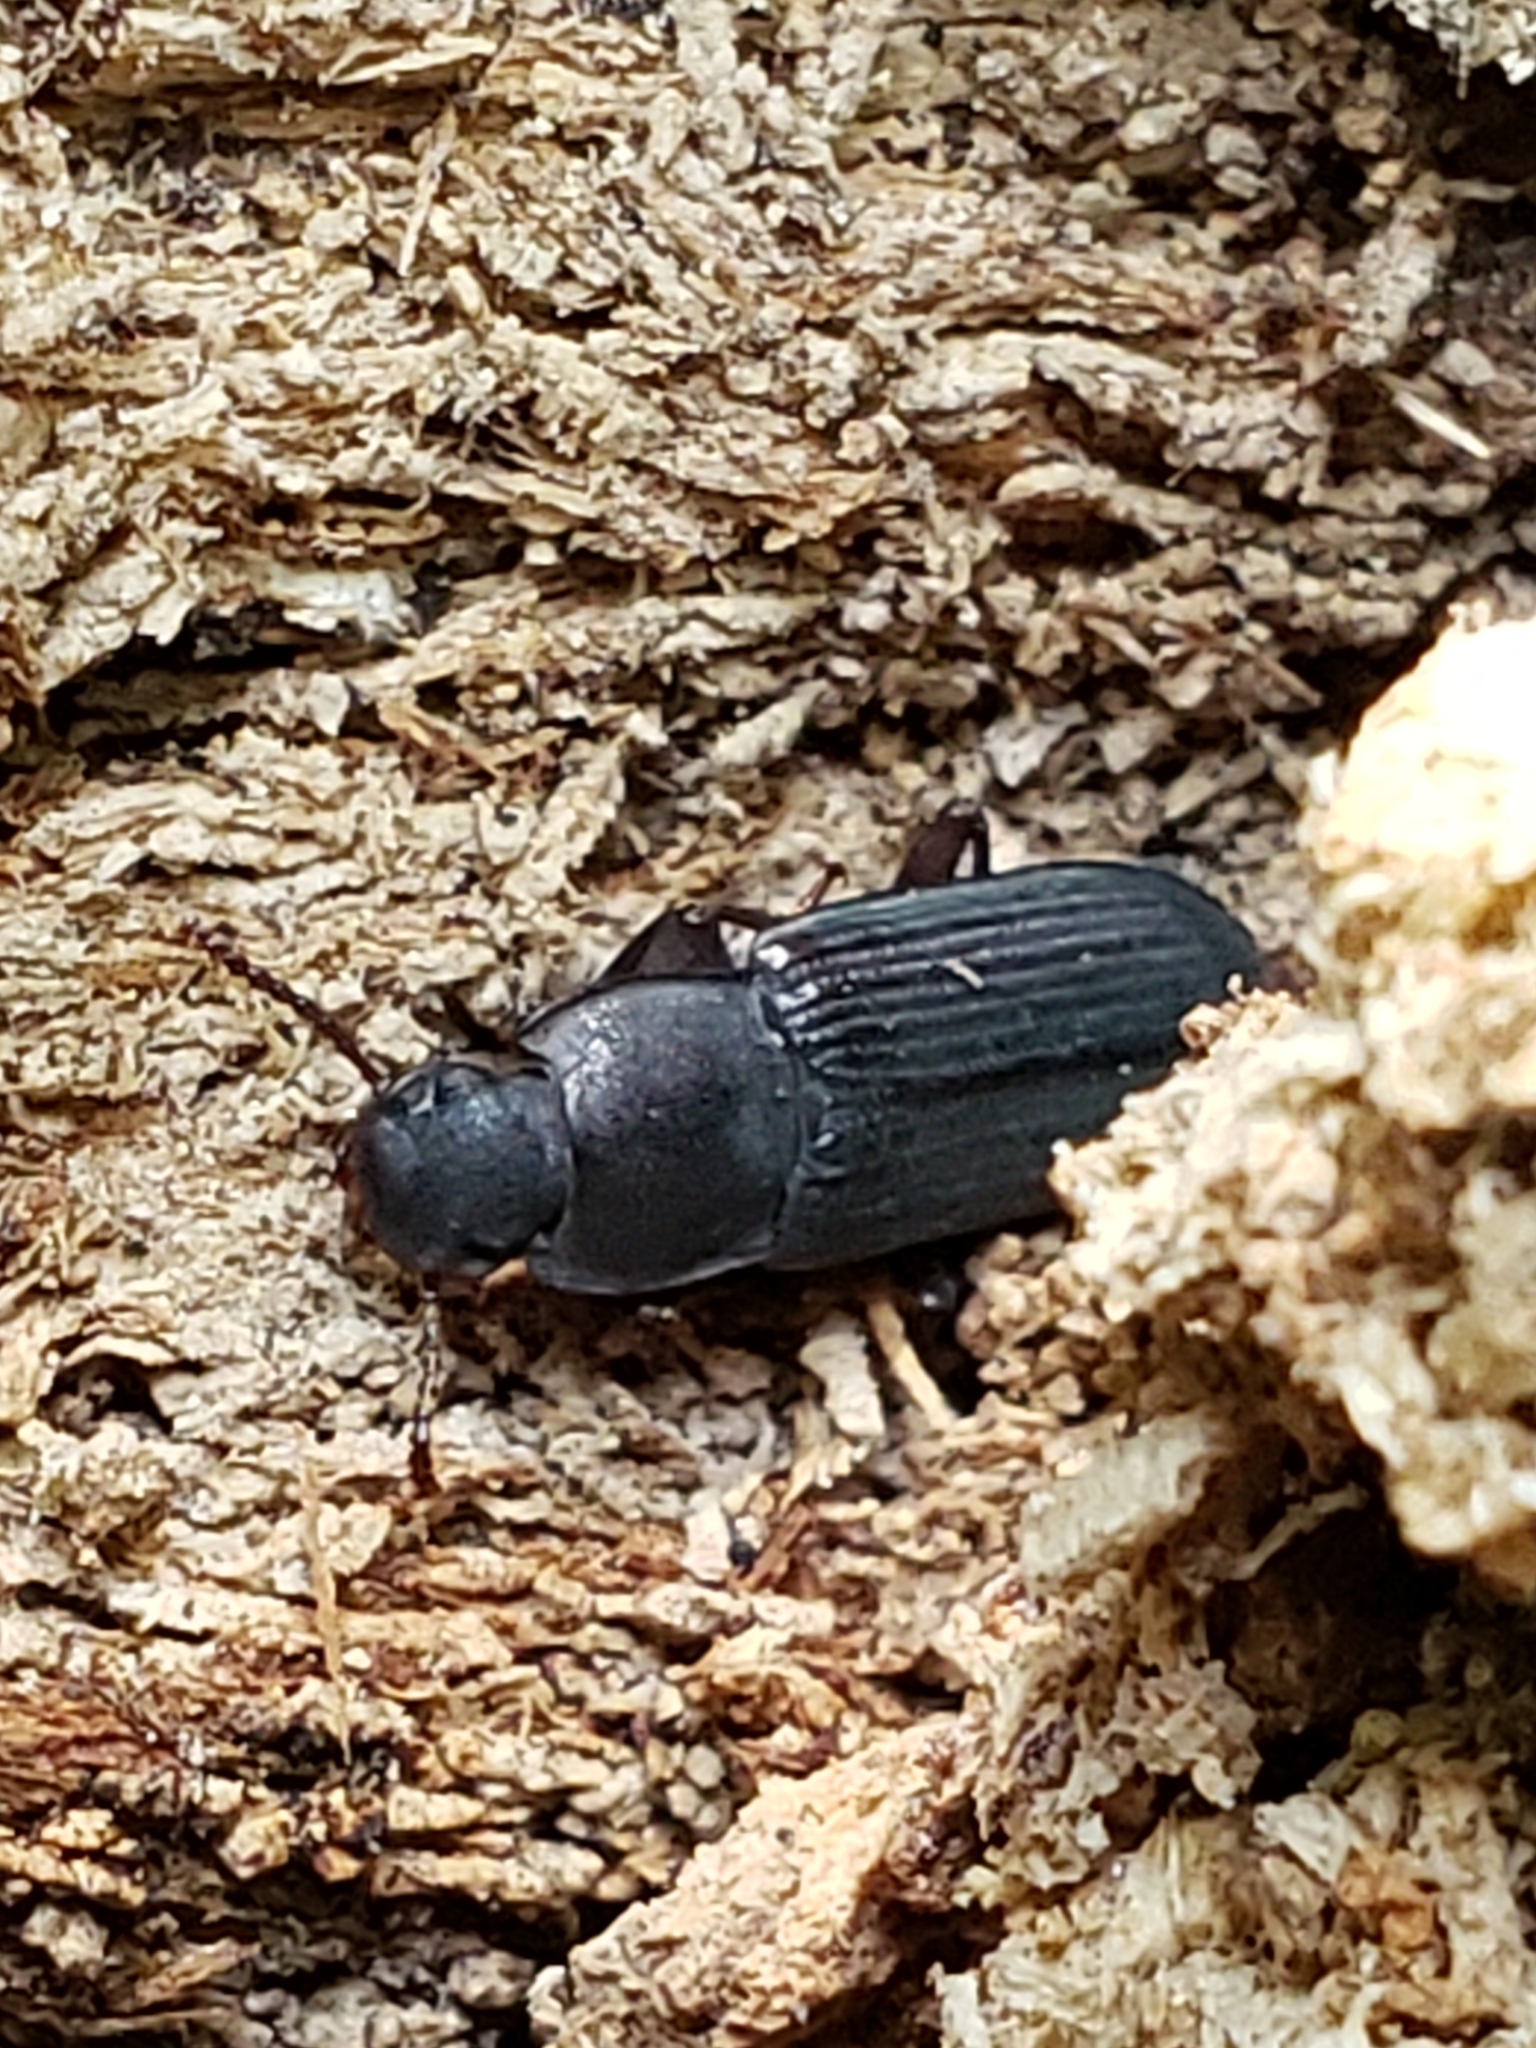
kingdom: Animalia
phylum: Arthropoda
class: Insecta
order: Coleoptera
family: Tenebrionidae
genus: Idiobates
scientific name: Idiobates castaneus
